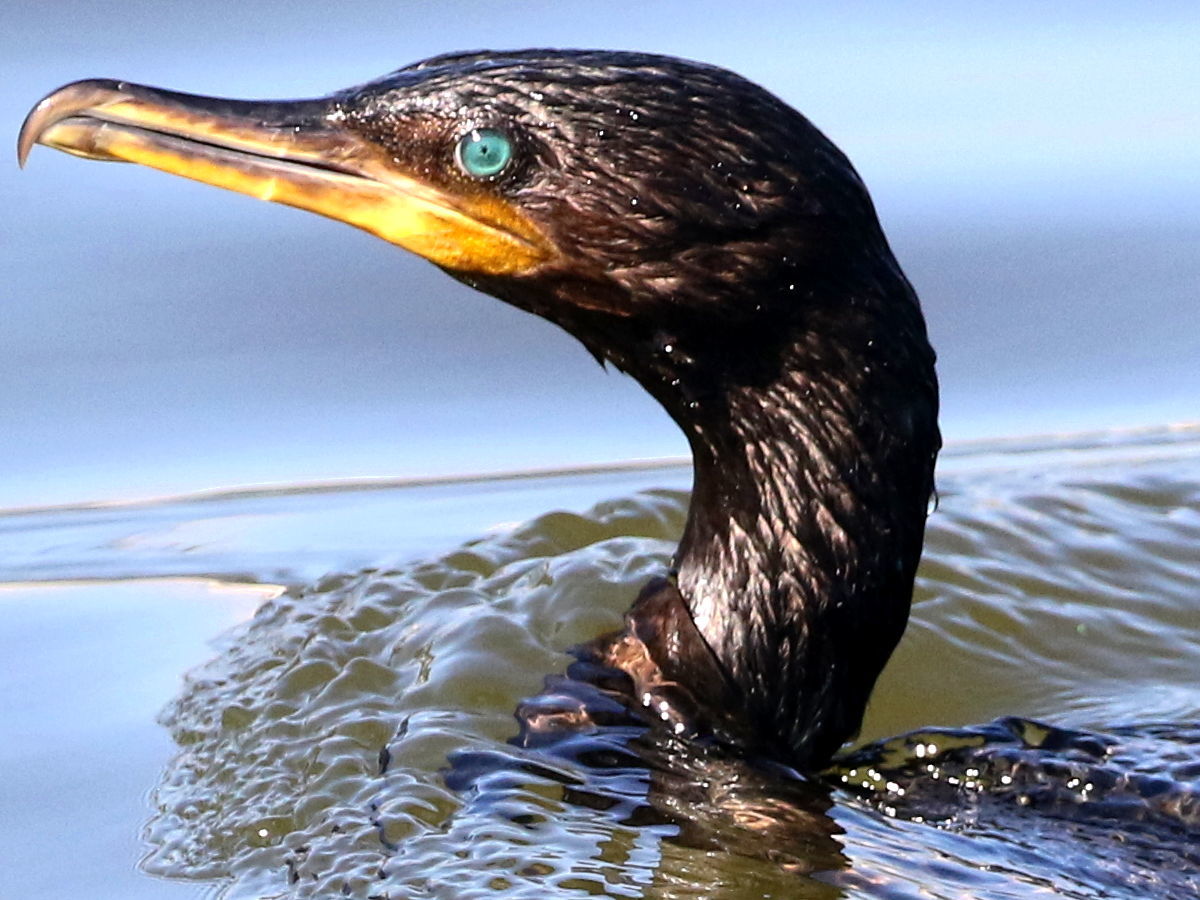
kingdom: Animalia
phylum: Chordata
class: Aves
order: Suliformes
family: Phalacrocoracidae
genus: Phalacrocorax
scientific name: Phalacrocorax brasilianus
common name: Neotropic cormorant
